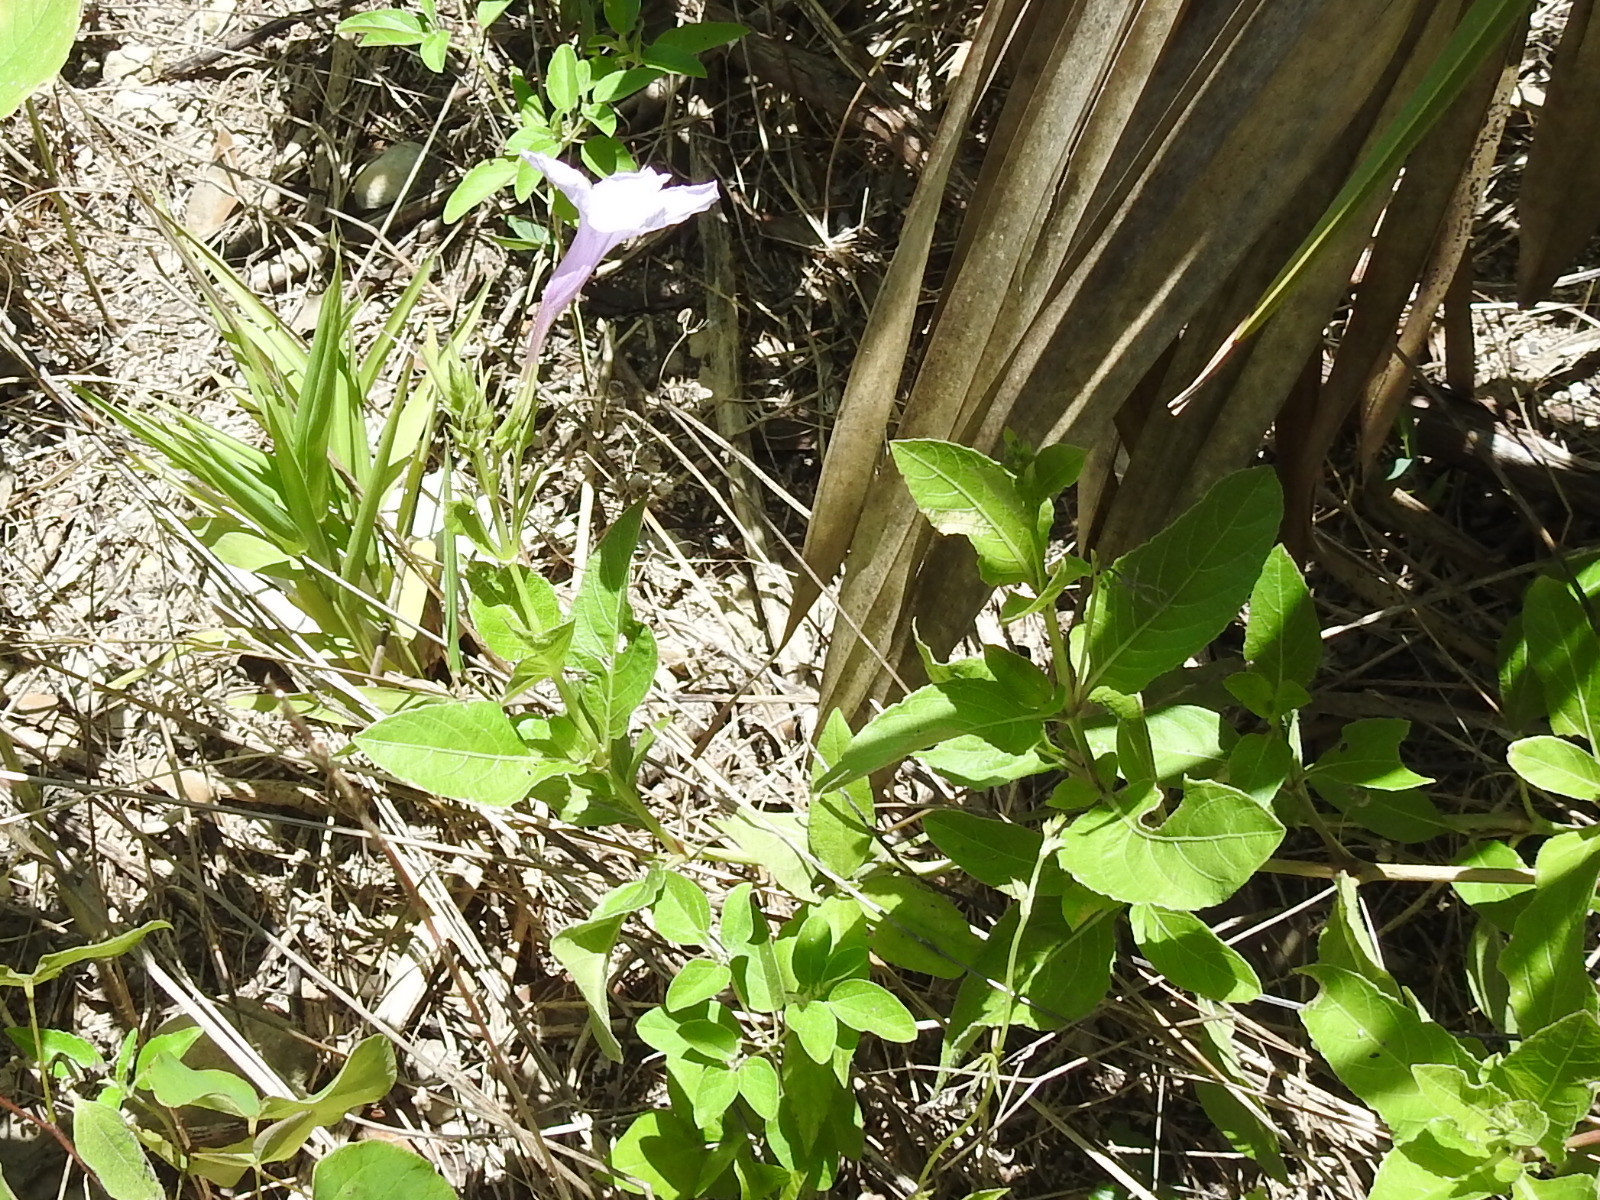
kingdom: Plantae
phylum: Tracheophyta
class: Magnoliopsida
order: Lamiales
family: Acanthaceae
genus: Ruellia
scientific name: Ruellia ciliatiflora
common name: Hairyflower wild petunia
